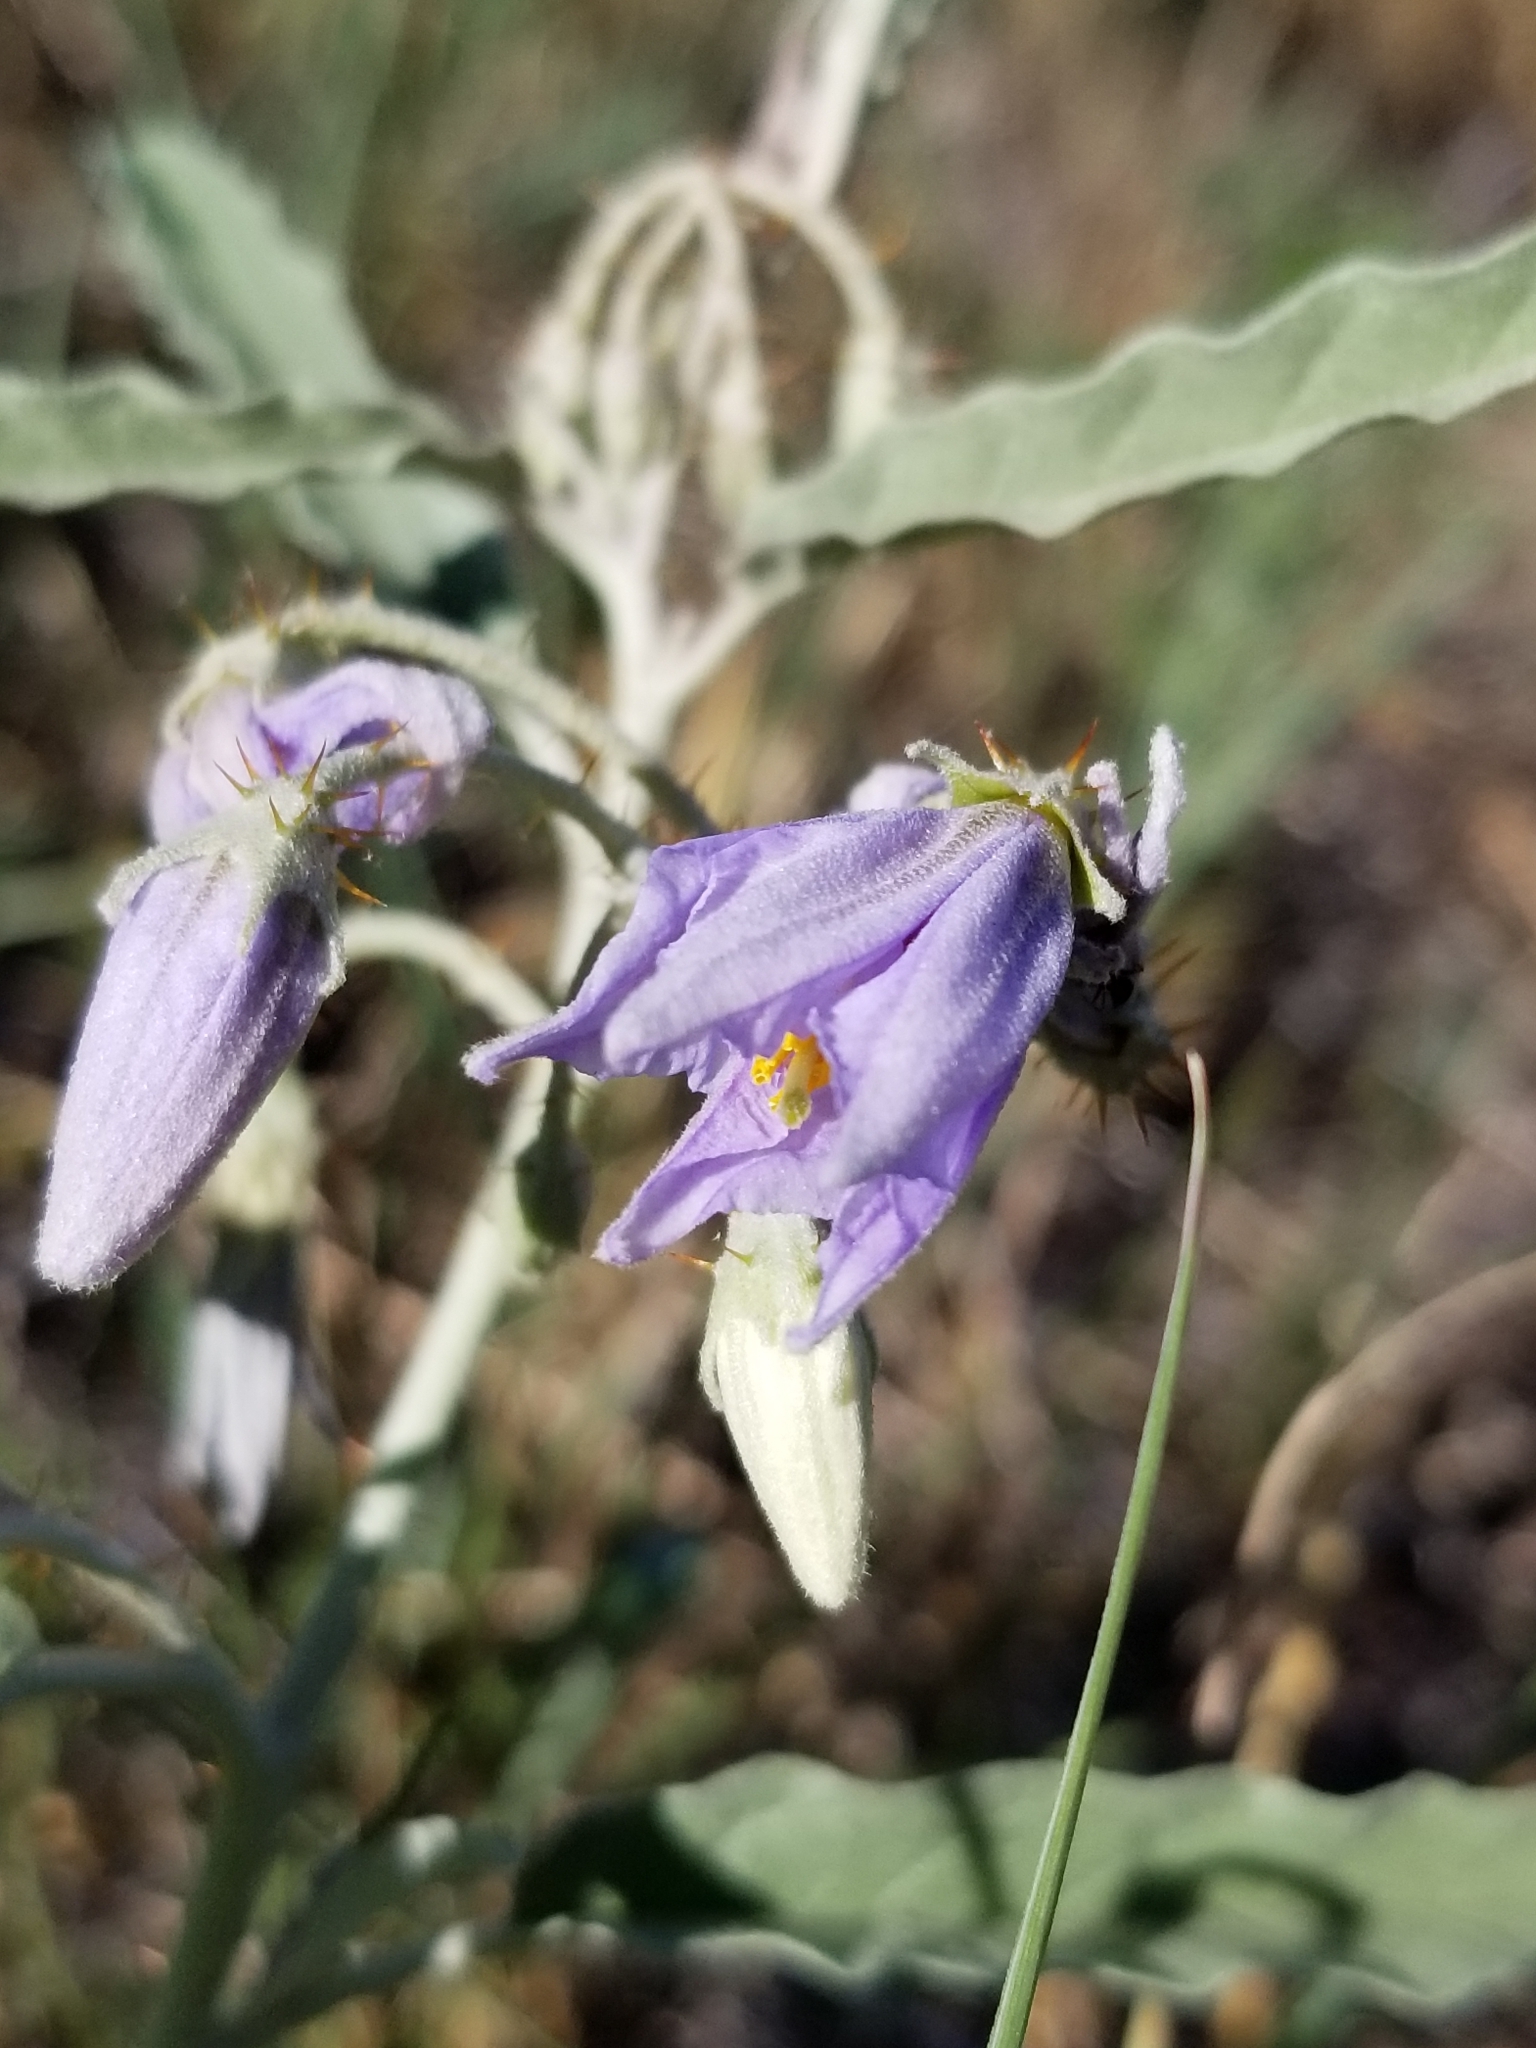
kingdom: Plantae
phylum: Tracheophyta
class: Magnoliopsida
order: Solanales
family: Solanaceae
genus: Solanum
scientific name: Solanum elaeagnifolium
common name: Silverleaf nightshade
